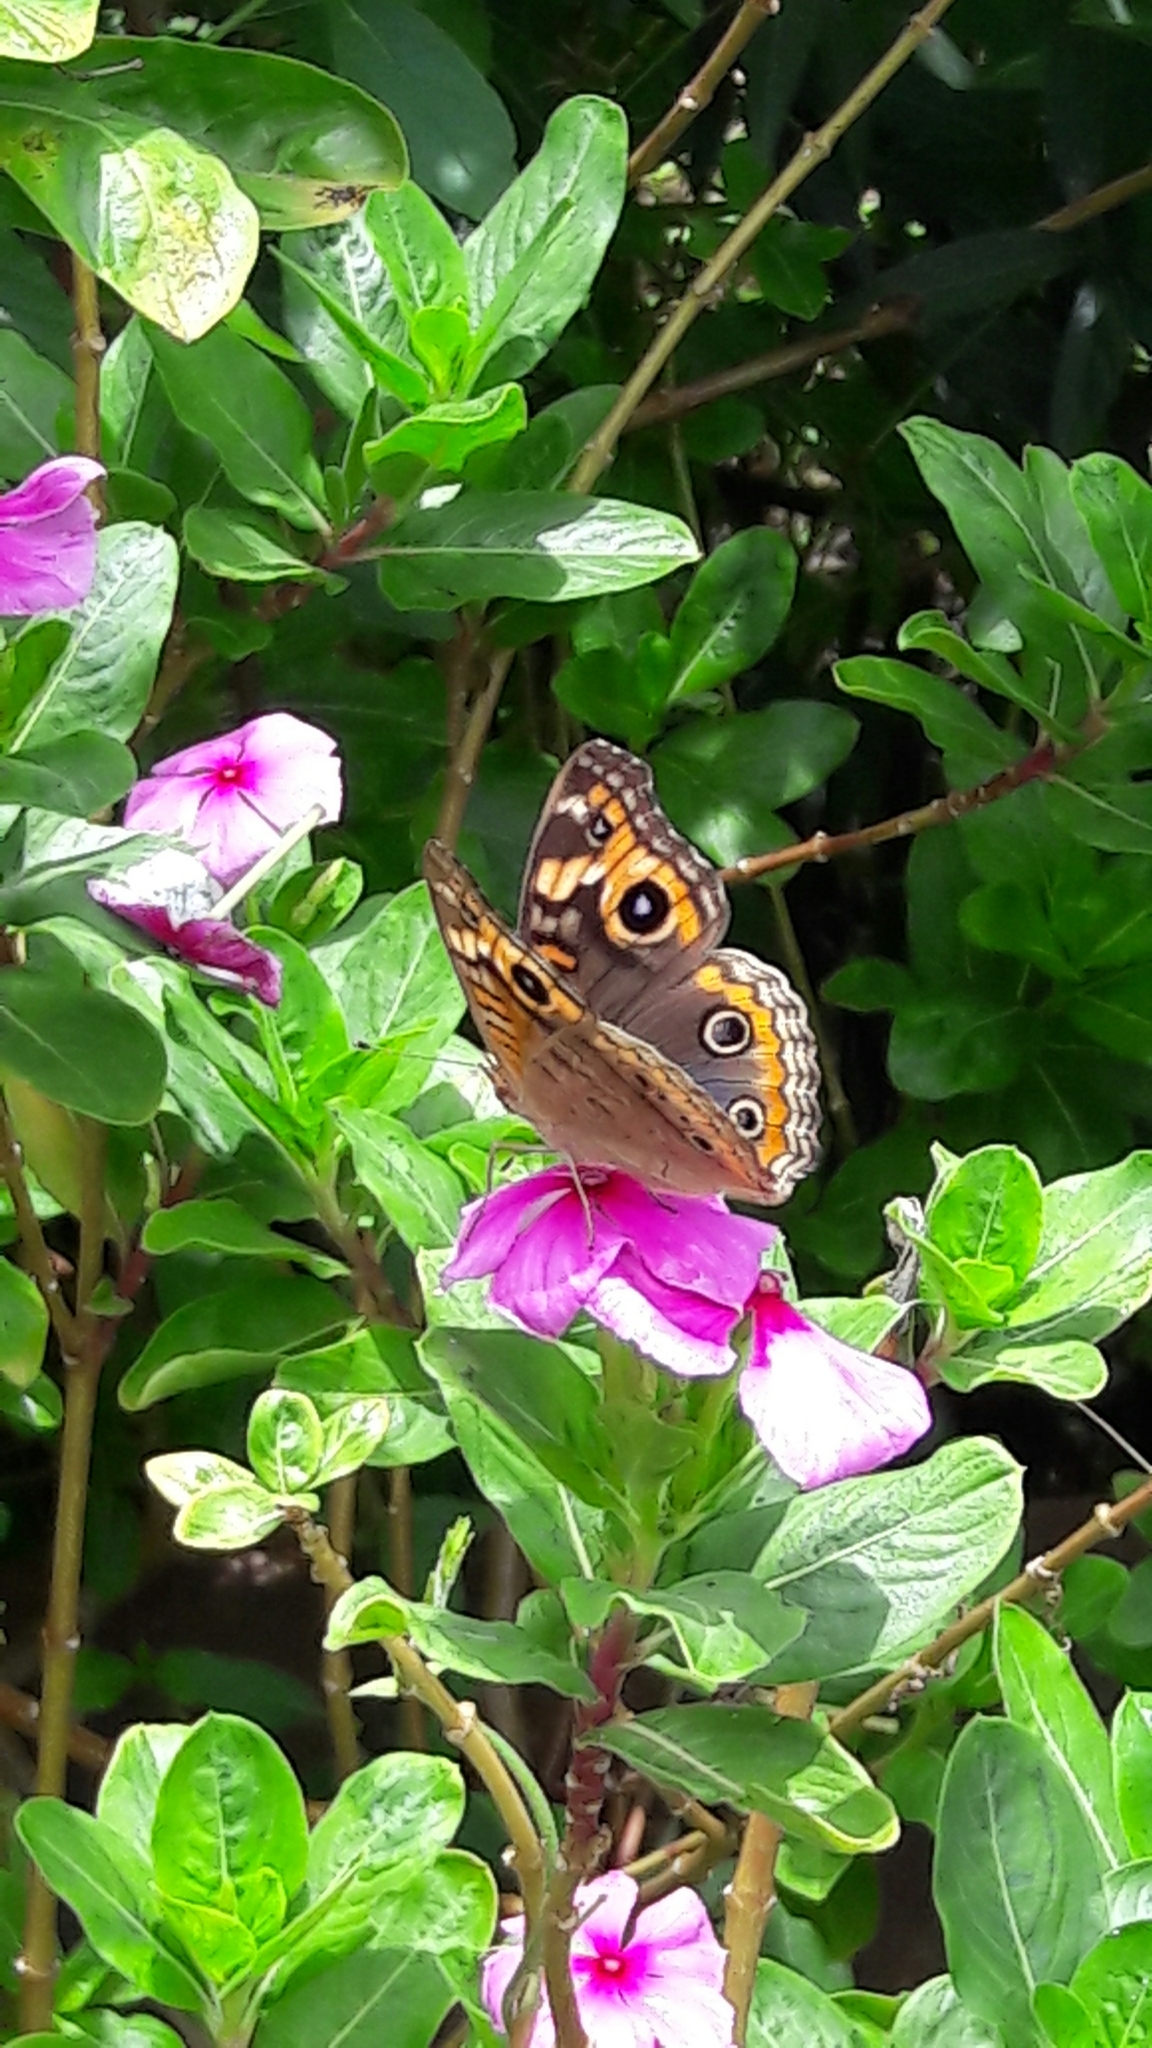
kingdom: Animalia
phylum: Arthropoda
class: Insecta
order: Lepidoptera
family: Nymphalidae
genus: Junonia
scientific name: Junonia evarete
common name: Black mangrove buckeye
